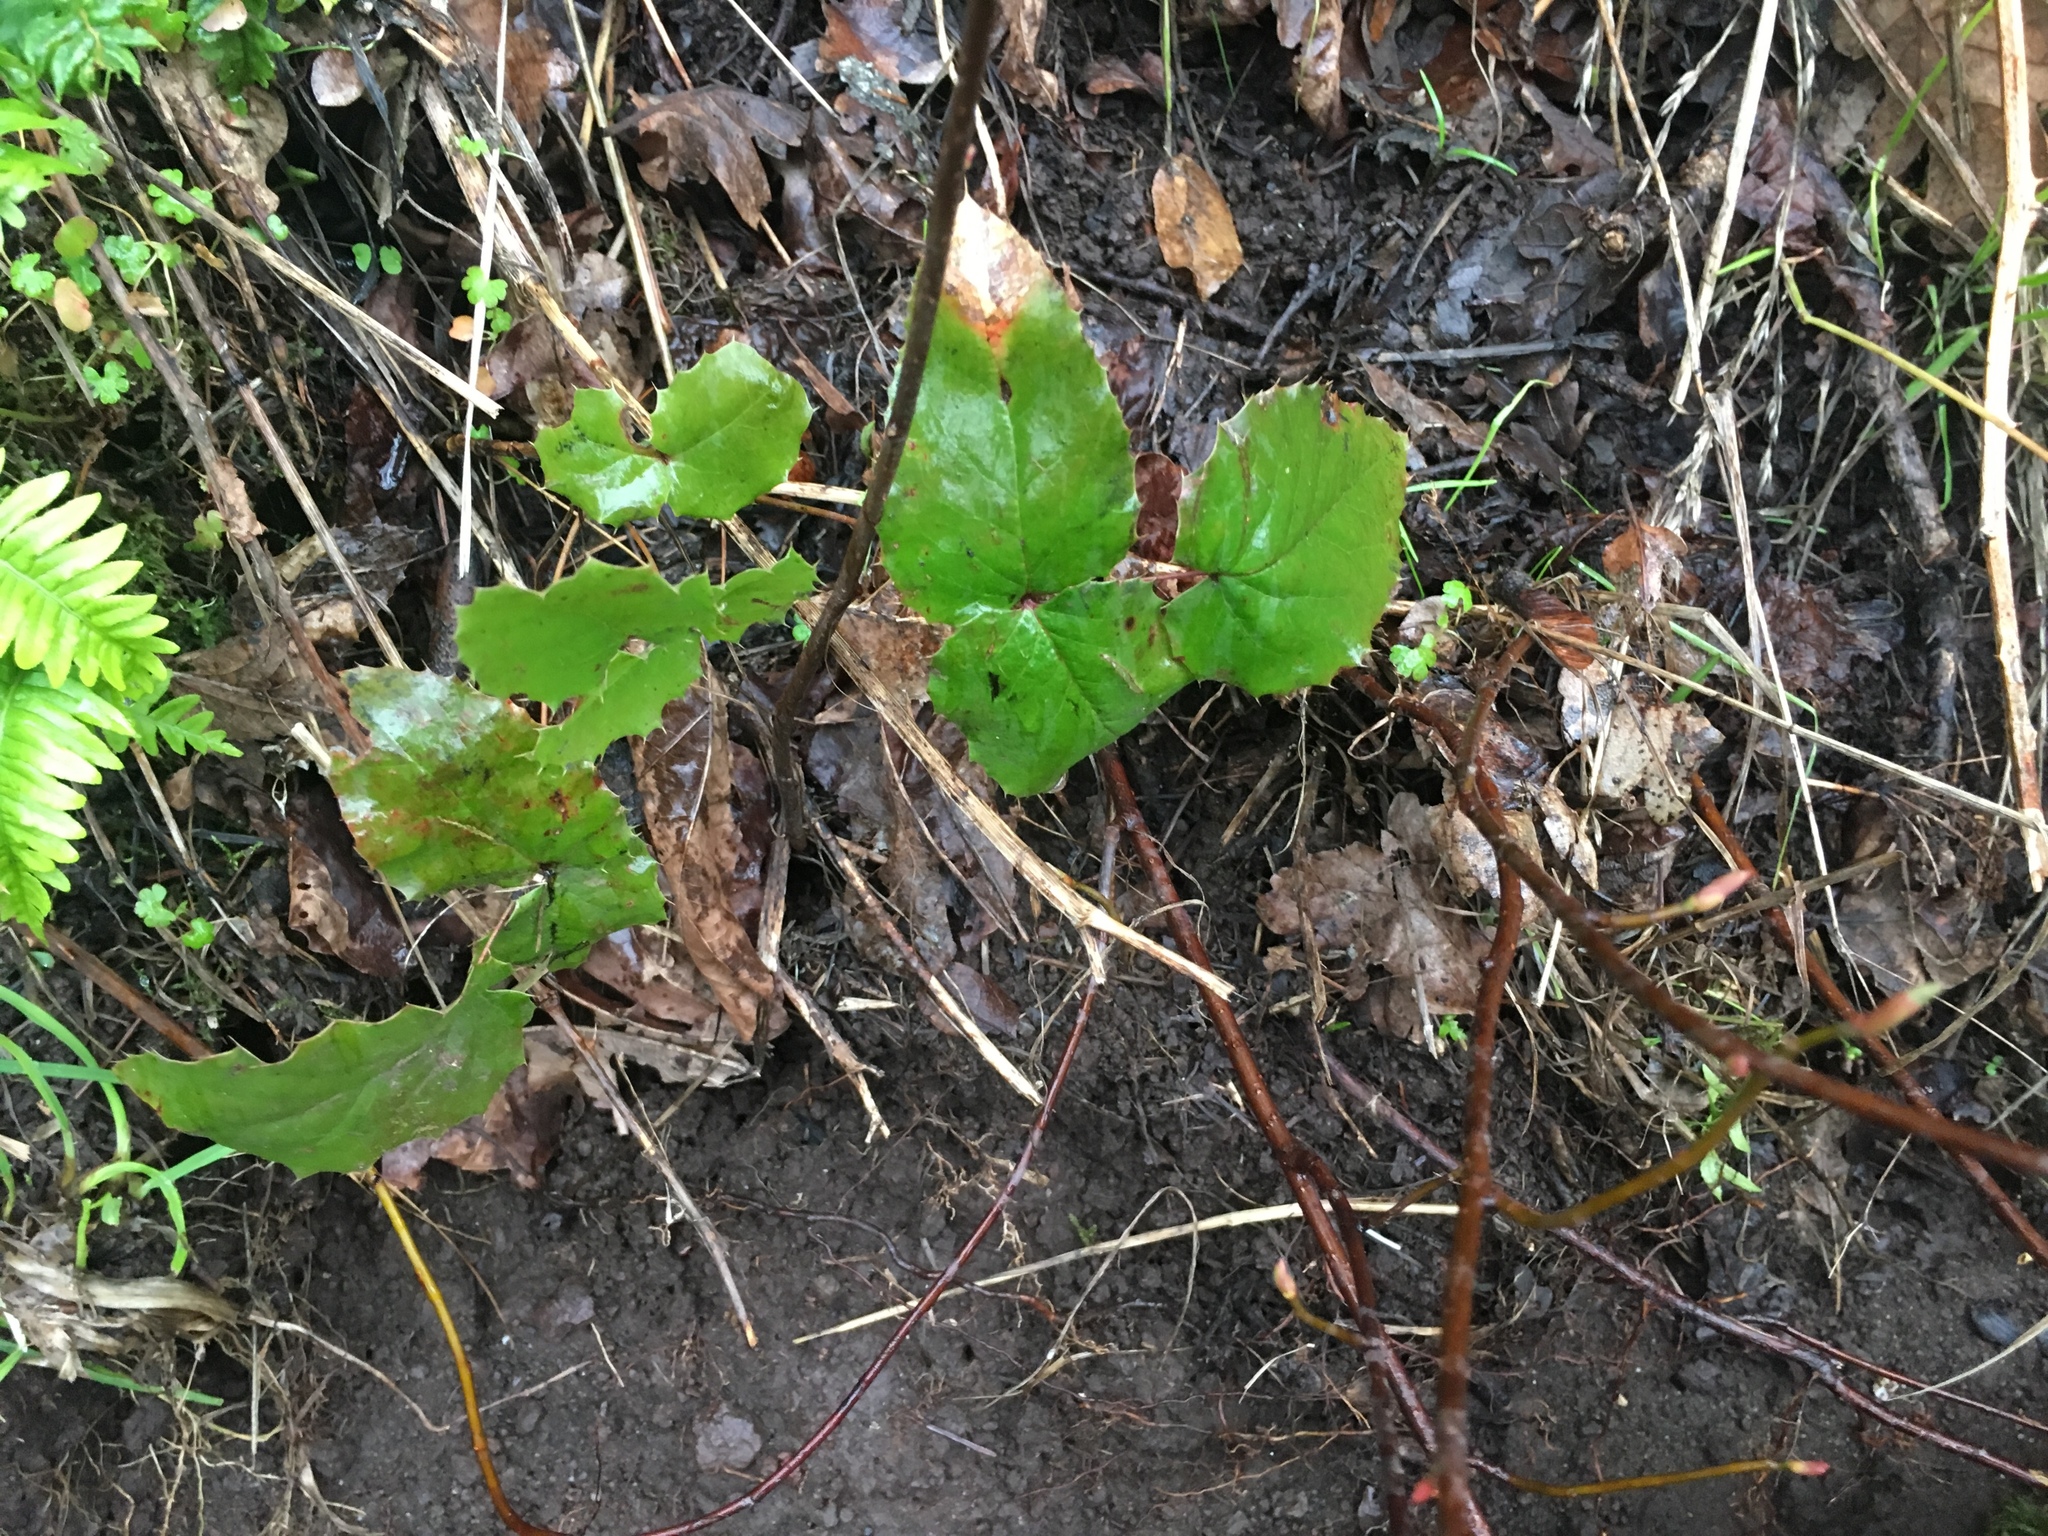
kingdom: Plantae
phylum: Tracheophyta
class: Magnoliopsida
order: Ranunculales
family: Berberidaceae
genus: Mahonia
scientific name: Mahonia aquifolium
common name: Oregon-grape
